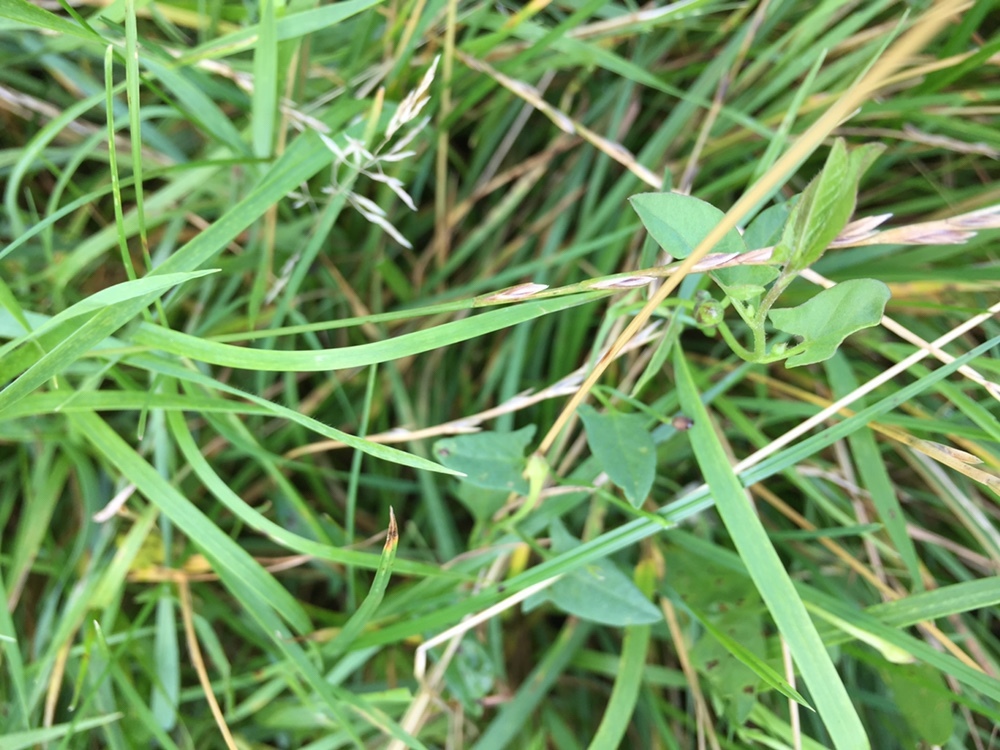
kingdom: Plantae
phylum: Tracheophyta
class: Magnoliopsida
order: Solanales
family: Convolvulaceae
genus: Convolvulus
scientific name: Convolvulus arvensis
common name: Field bindweed
